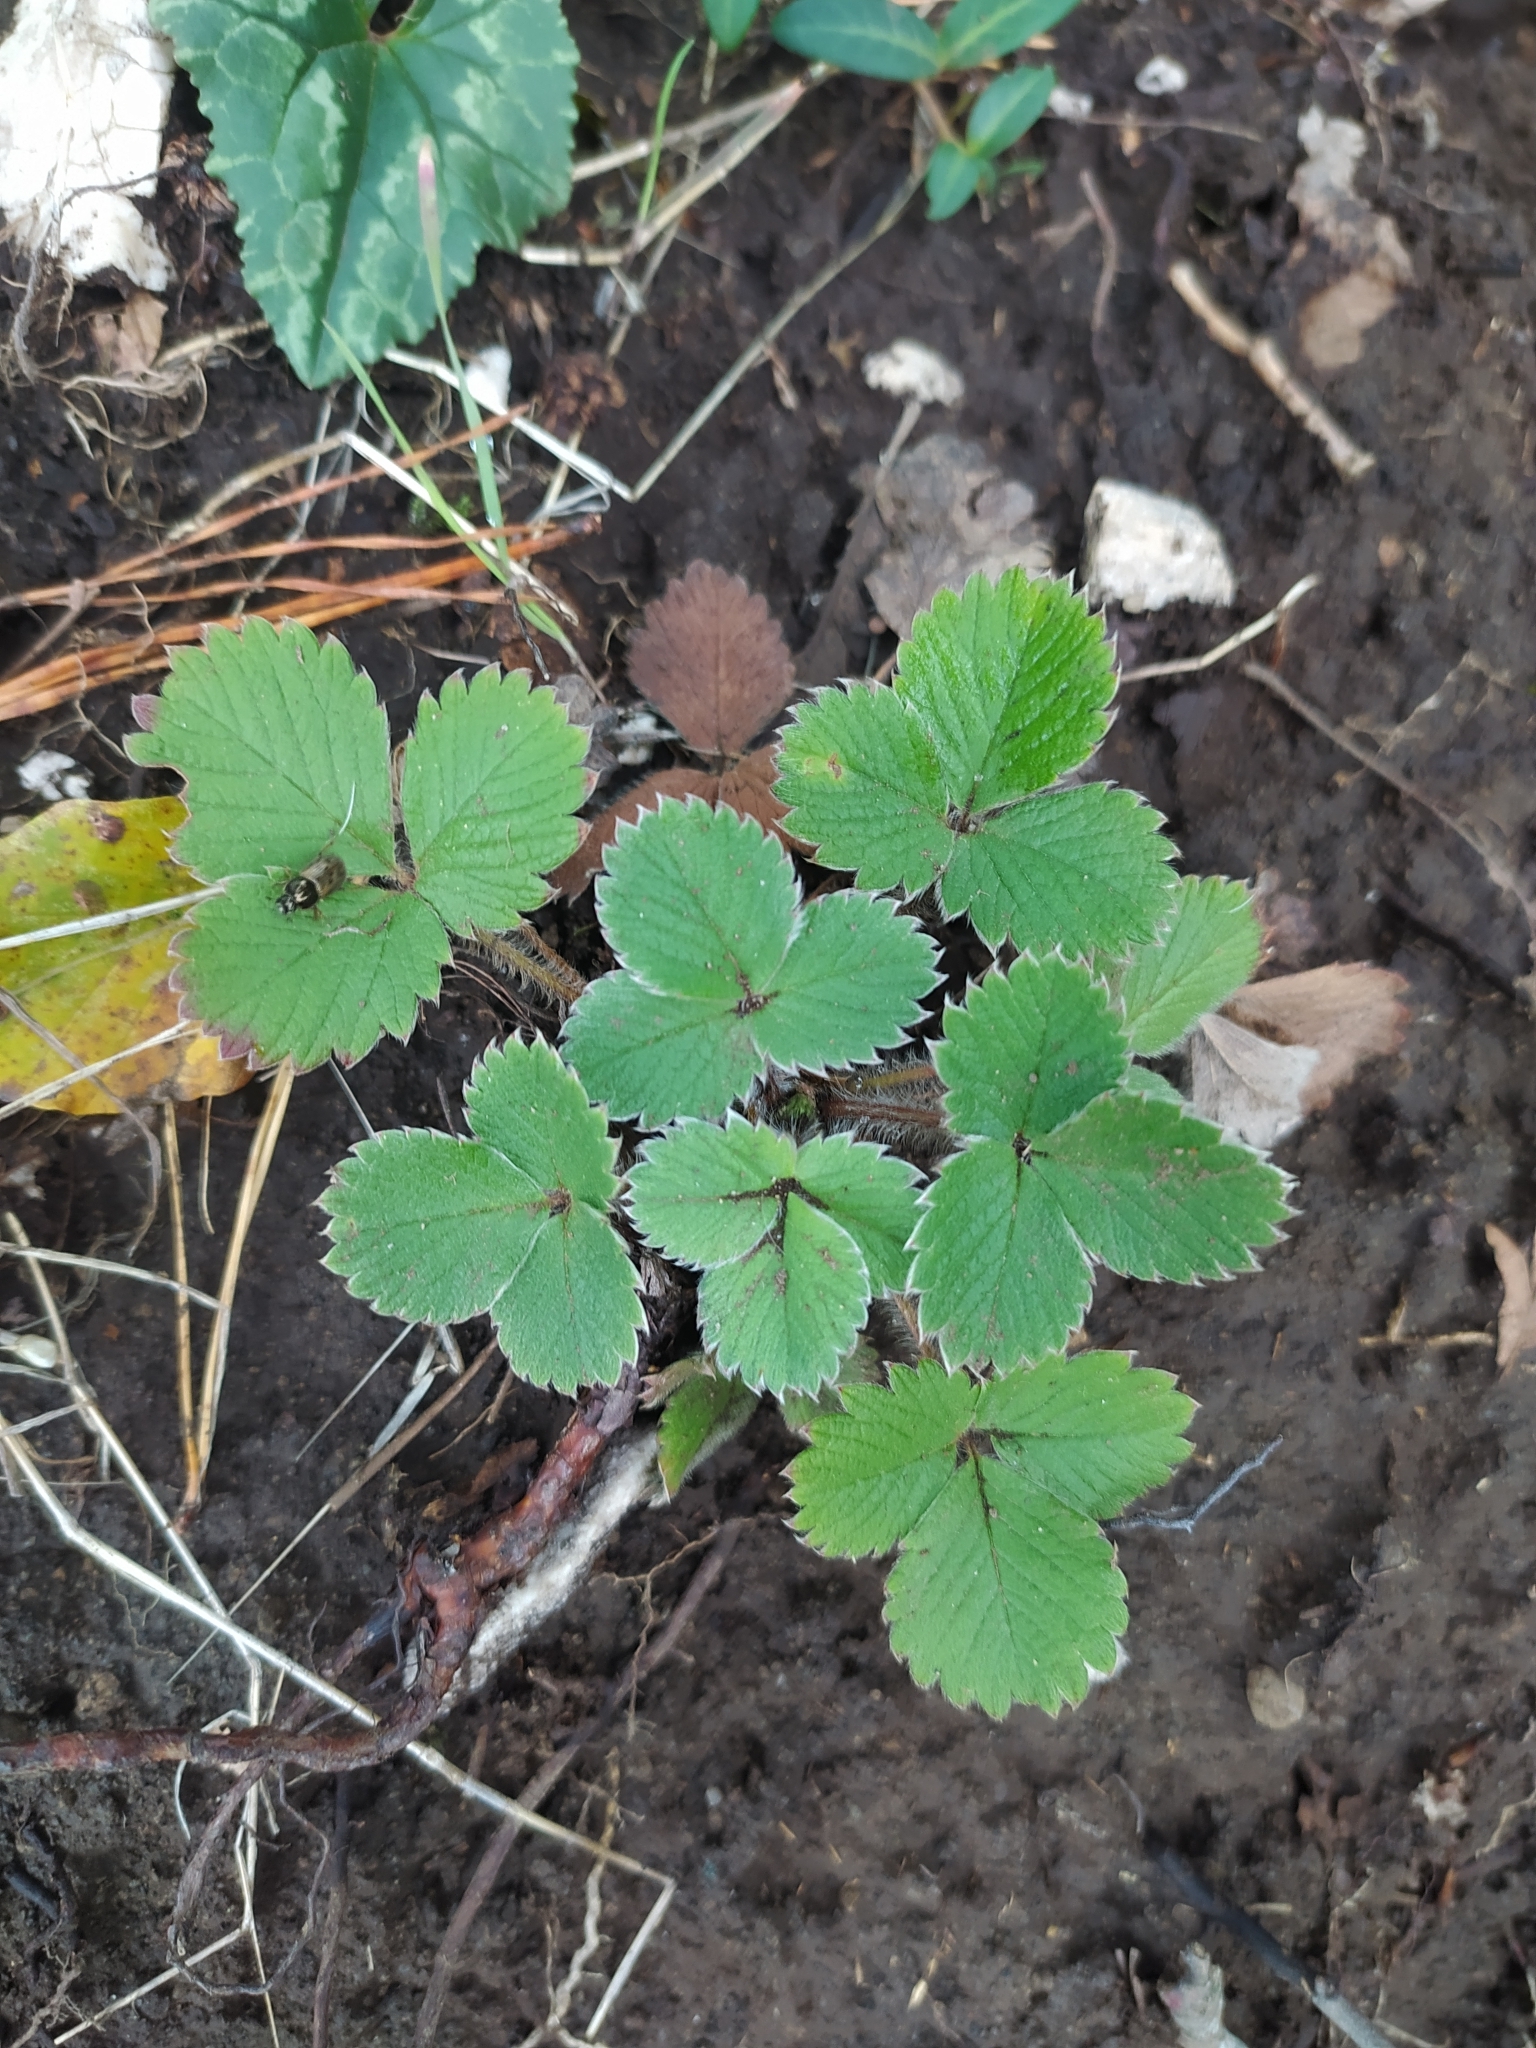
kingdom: Plantae
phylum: Tracheophyta
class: Magnoliopsida
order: Rosales
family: Rosaceae
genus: Potentilla
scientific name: Potentilla micrantha
